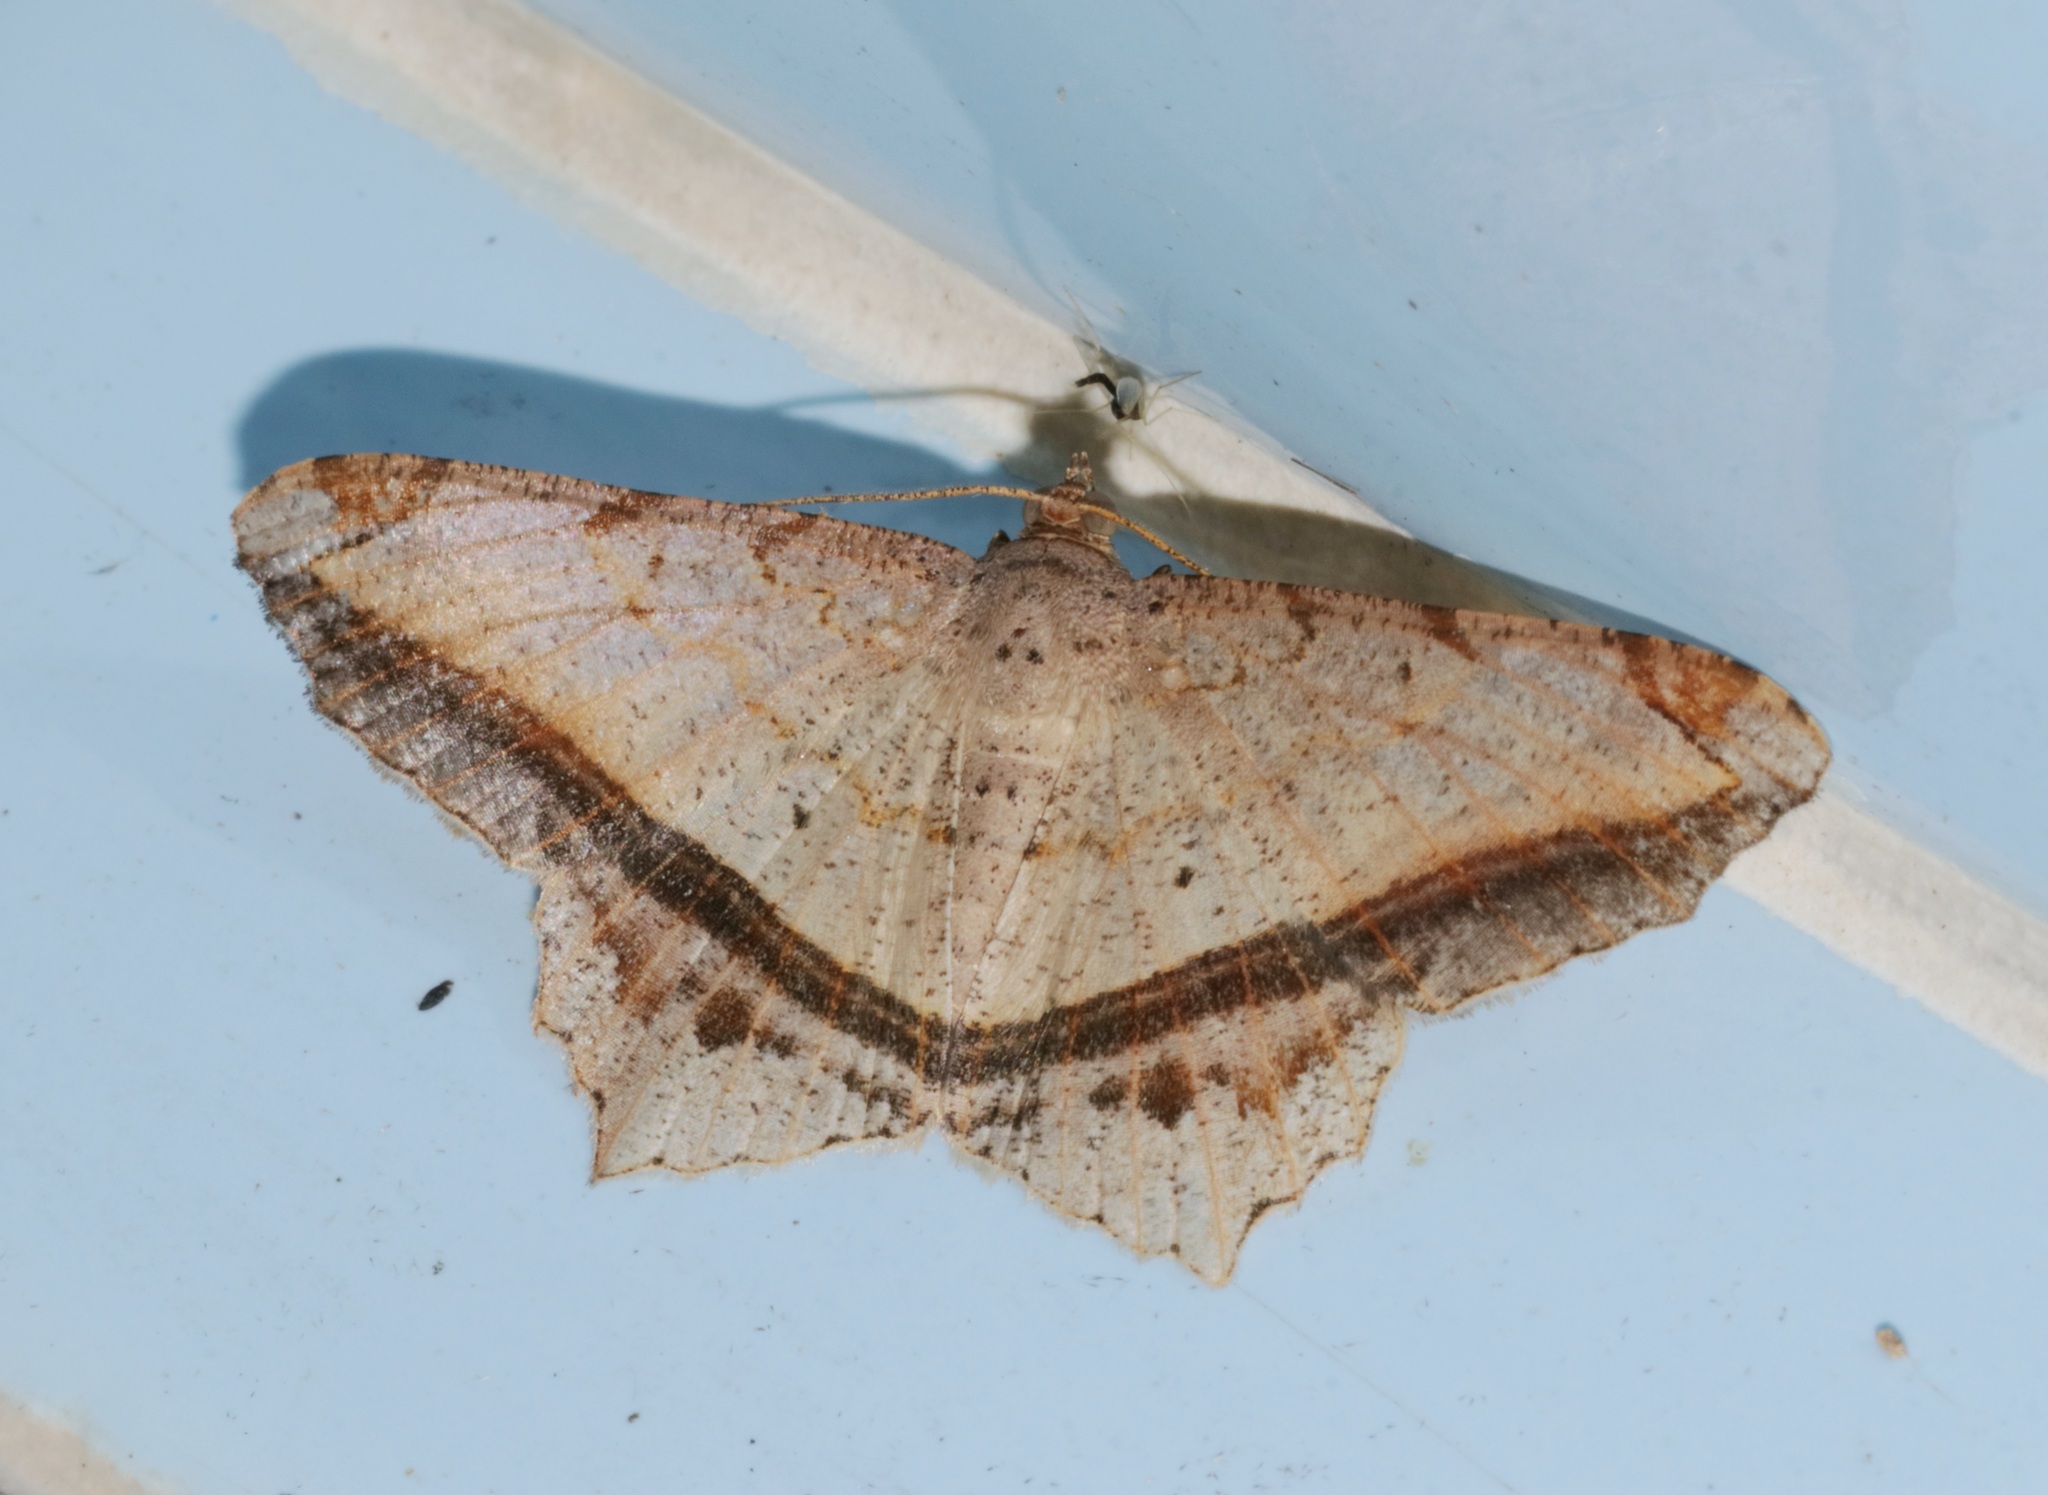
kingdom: Animalia
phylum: Arthropoda
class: Insecta
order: Lepidoptera
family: Geometridae
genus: Chiasmia
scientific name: Chiasmia ozararia
